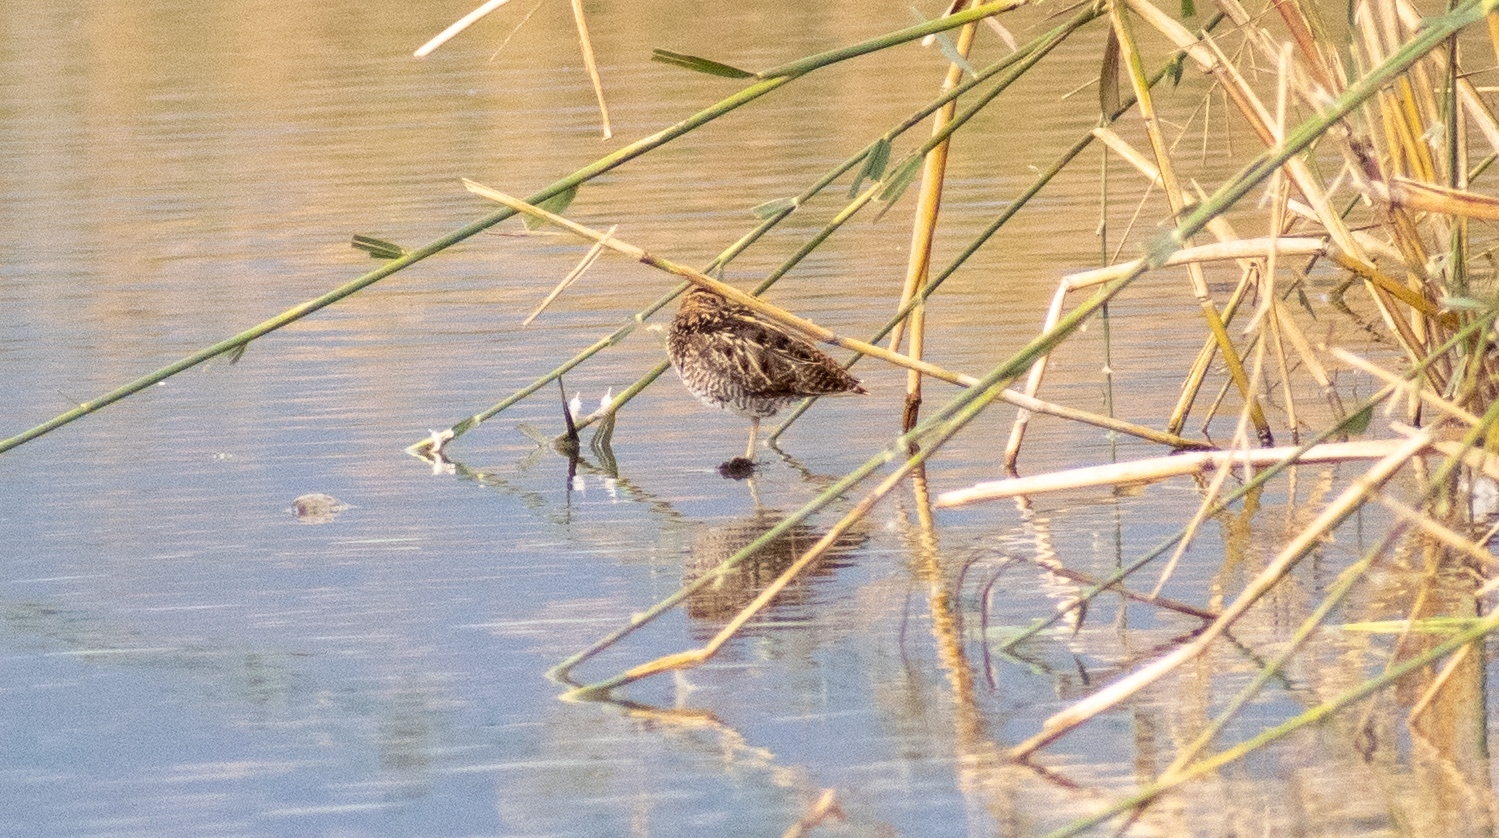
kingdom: Animalia
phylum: Chordata
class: Aves
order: Charadriiformes
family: Scolopacidae
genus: Gallinago
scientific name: Gallinago gallinago
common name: Common snipe
